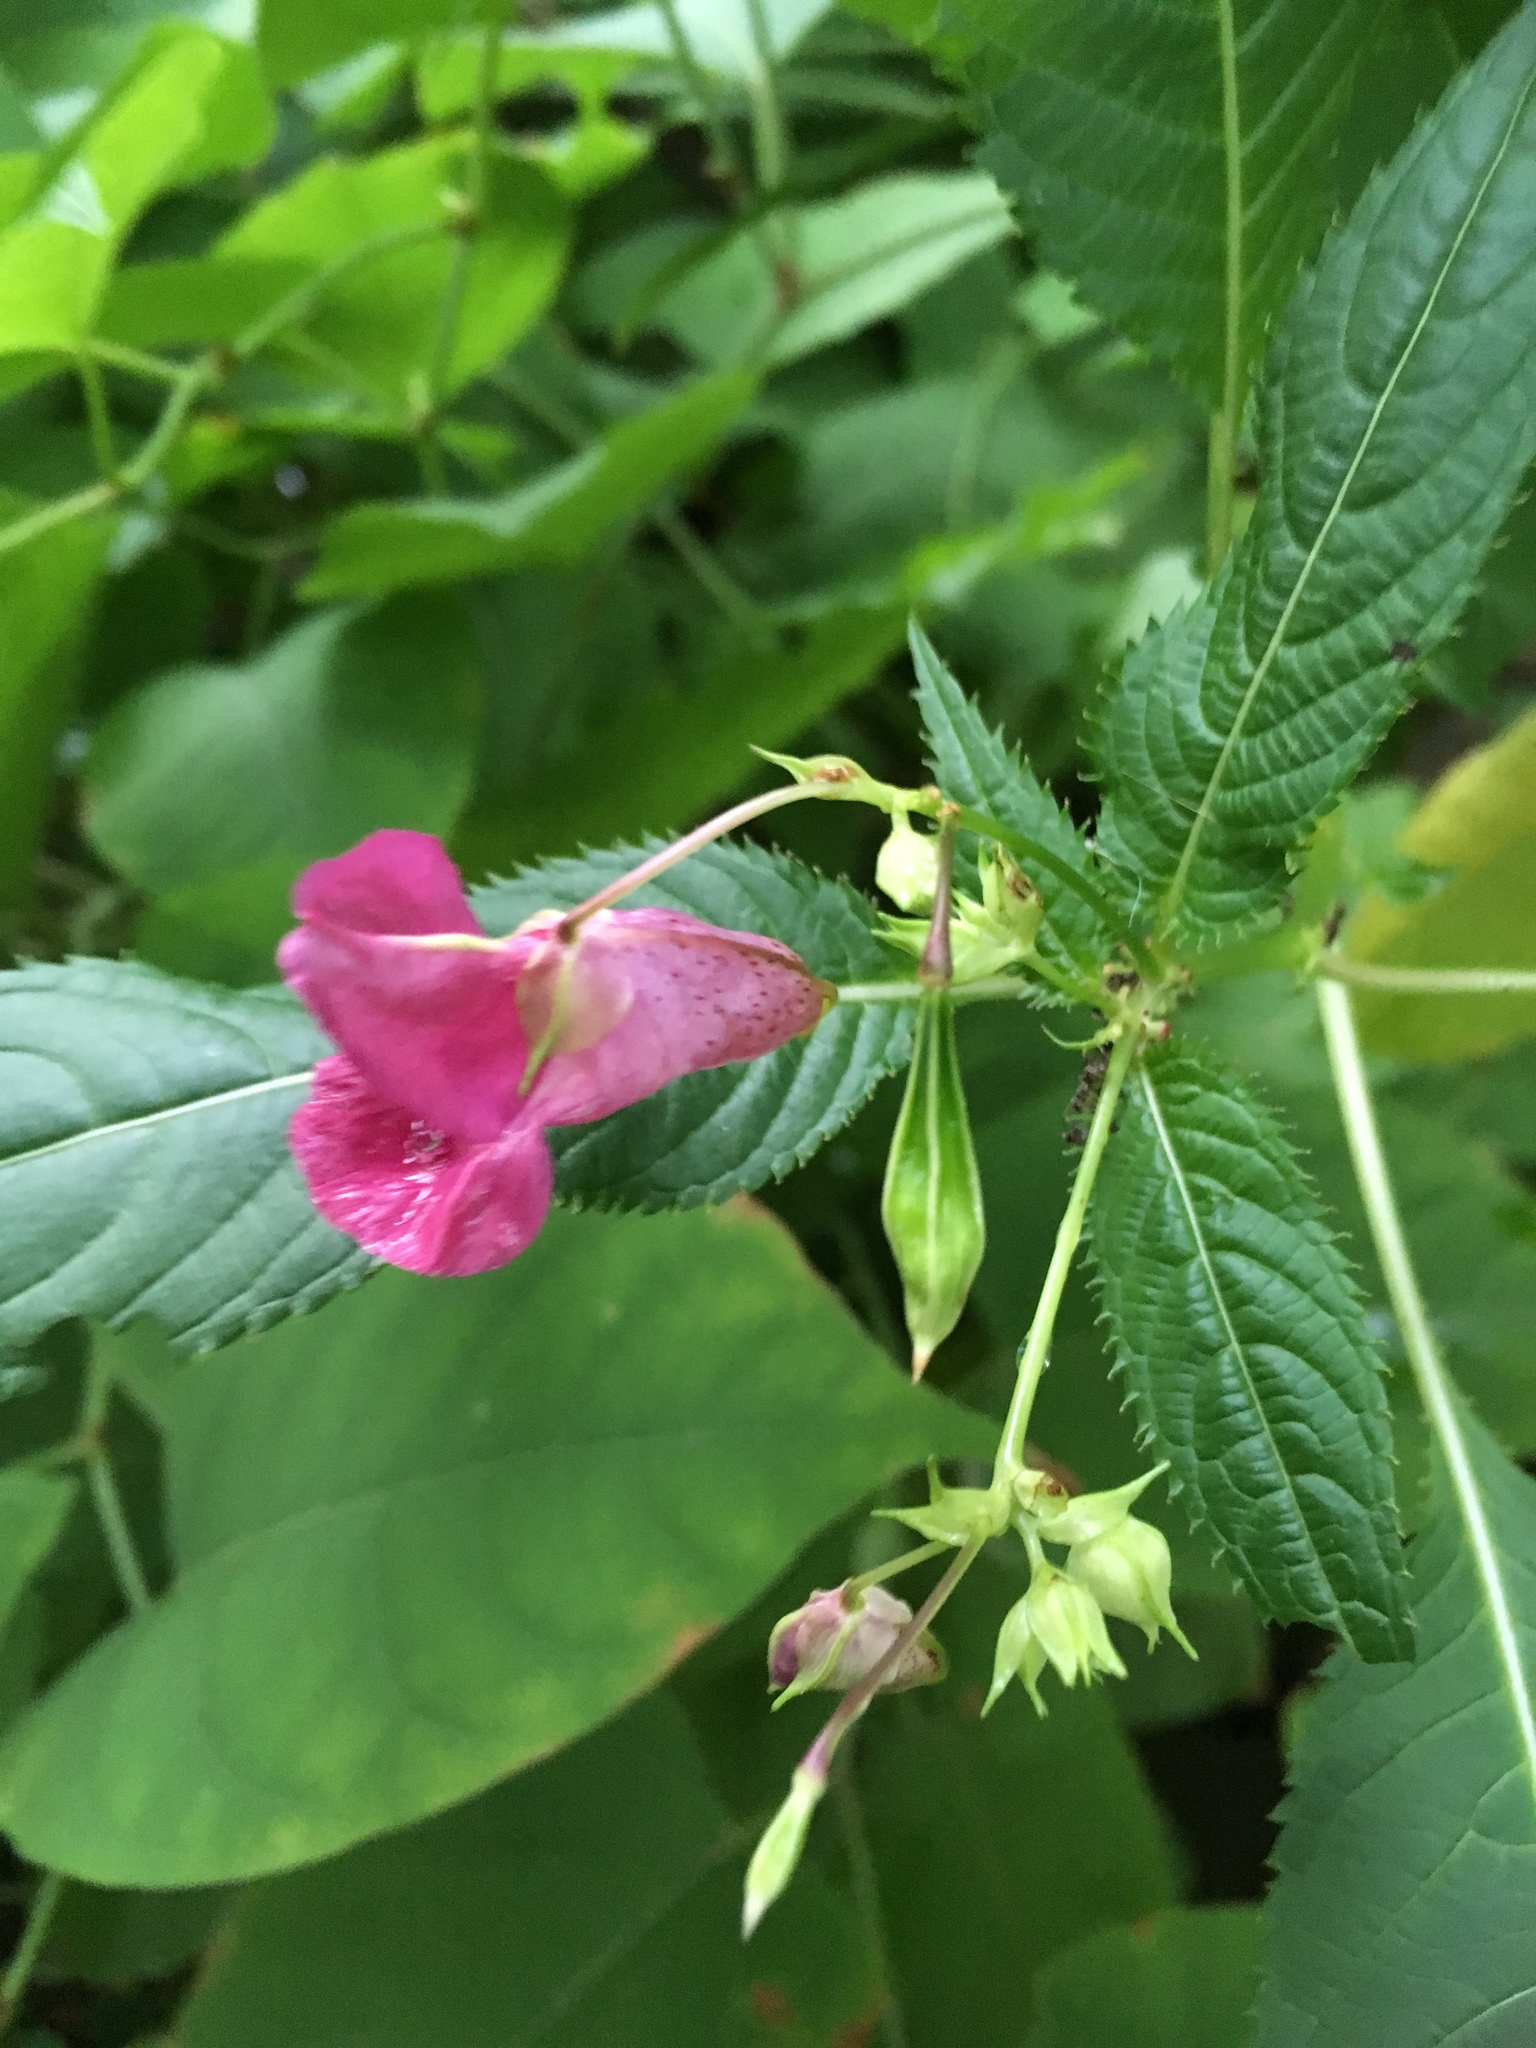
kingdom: Plantae
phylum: Tracheophyta
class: Magnoliopsida
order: Ericales
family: Balsaminaceae
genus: Impatiens
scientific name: Impatiens glandulifera
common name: Himalayan balsam
